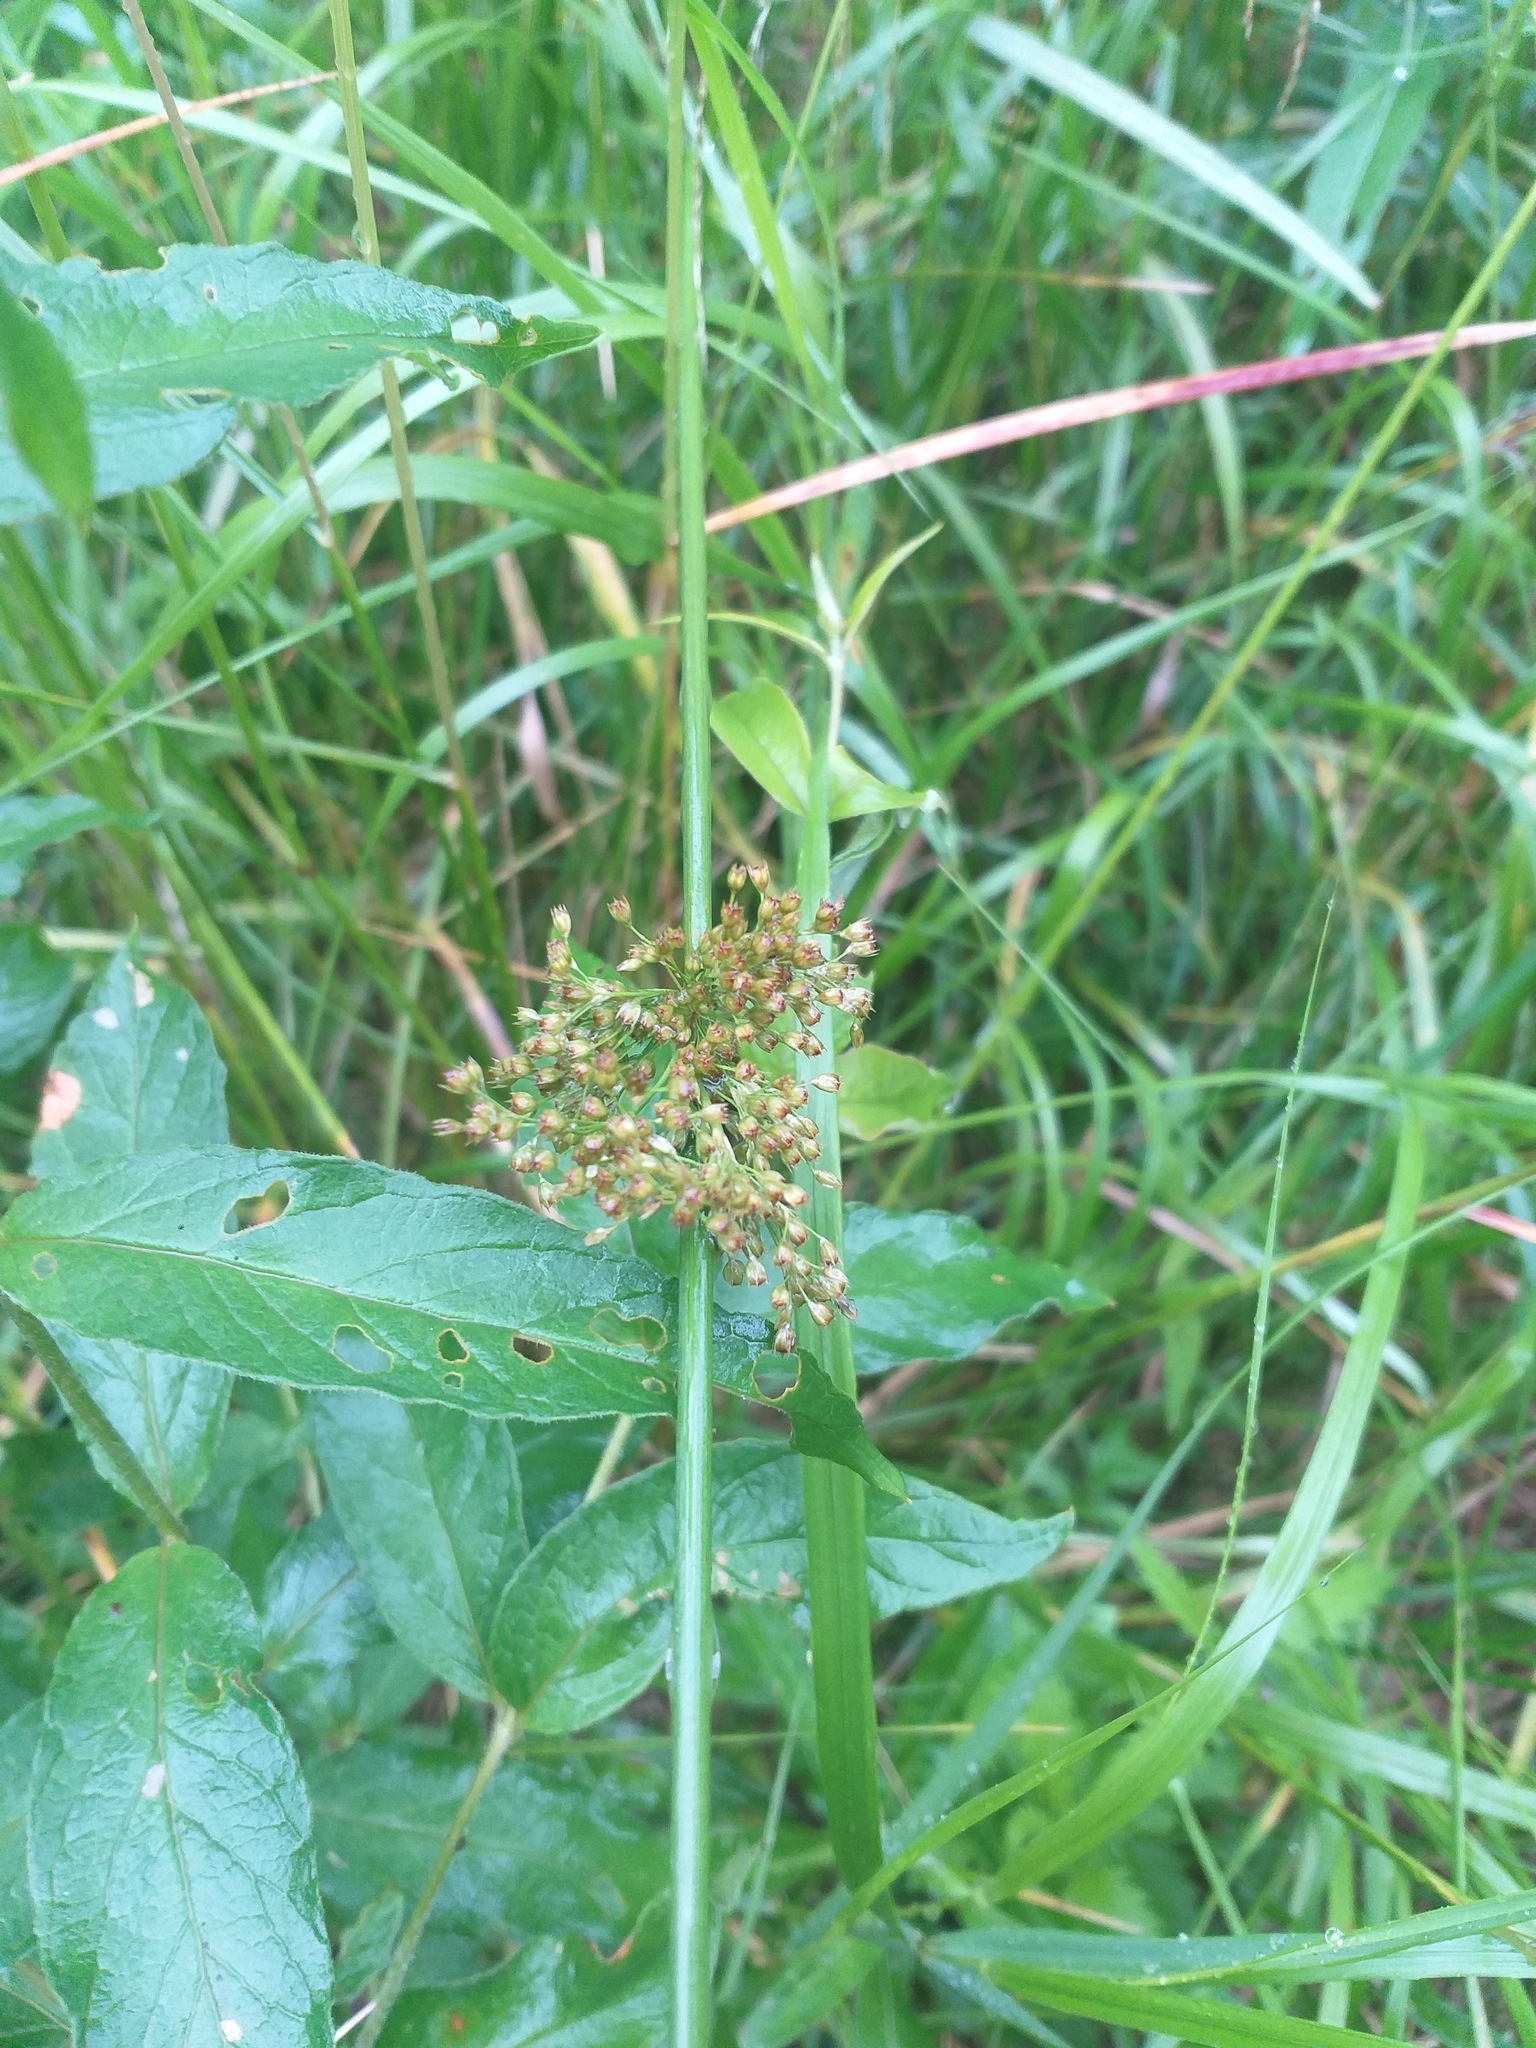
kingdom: Plantae
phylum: Tracheophyta
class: Liliopsida
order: Poales
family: Juncaceae
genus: Juncus
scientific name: Juncus effusus
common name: Soft rush
